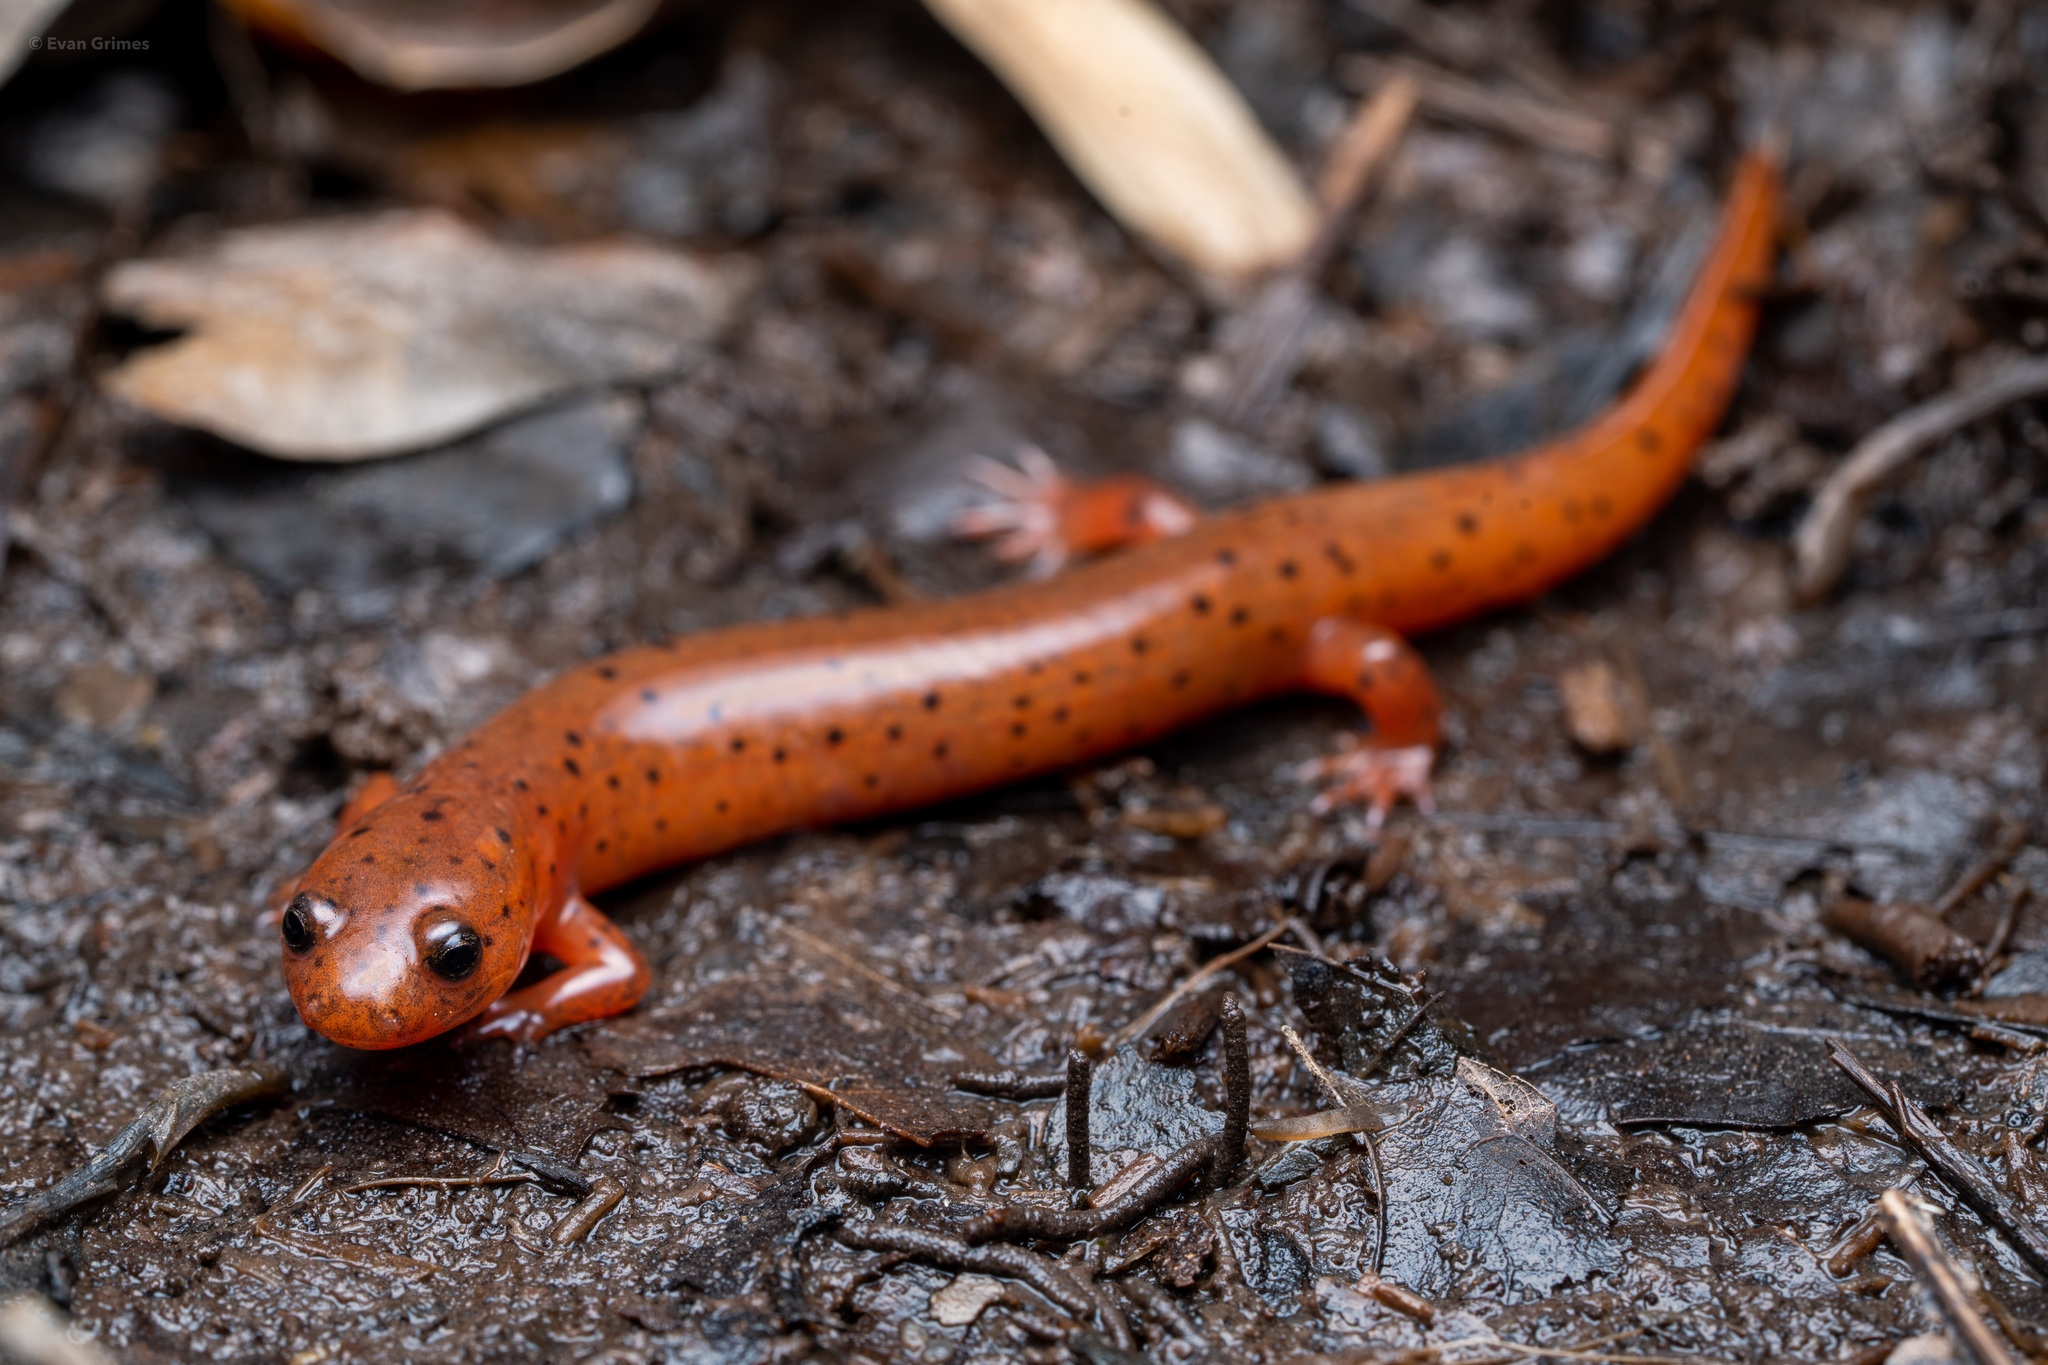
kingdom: Animalia
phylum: Chordata
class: Amphibia
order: Caudata
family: Plethodontidae
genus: Pseudotriton
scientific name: Pseudotriton montanus
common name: Mud salamander
